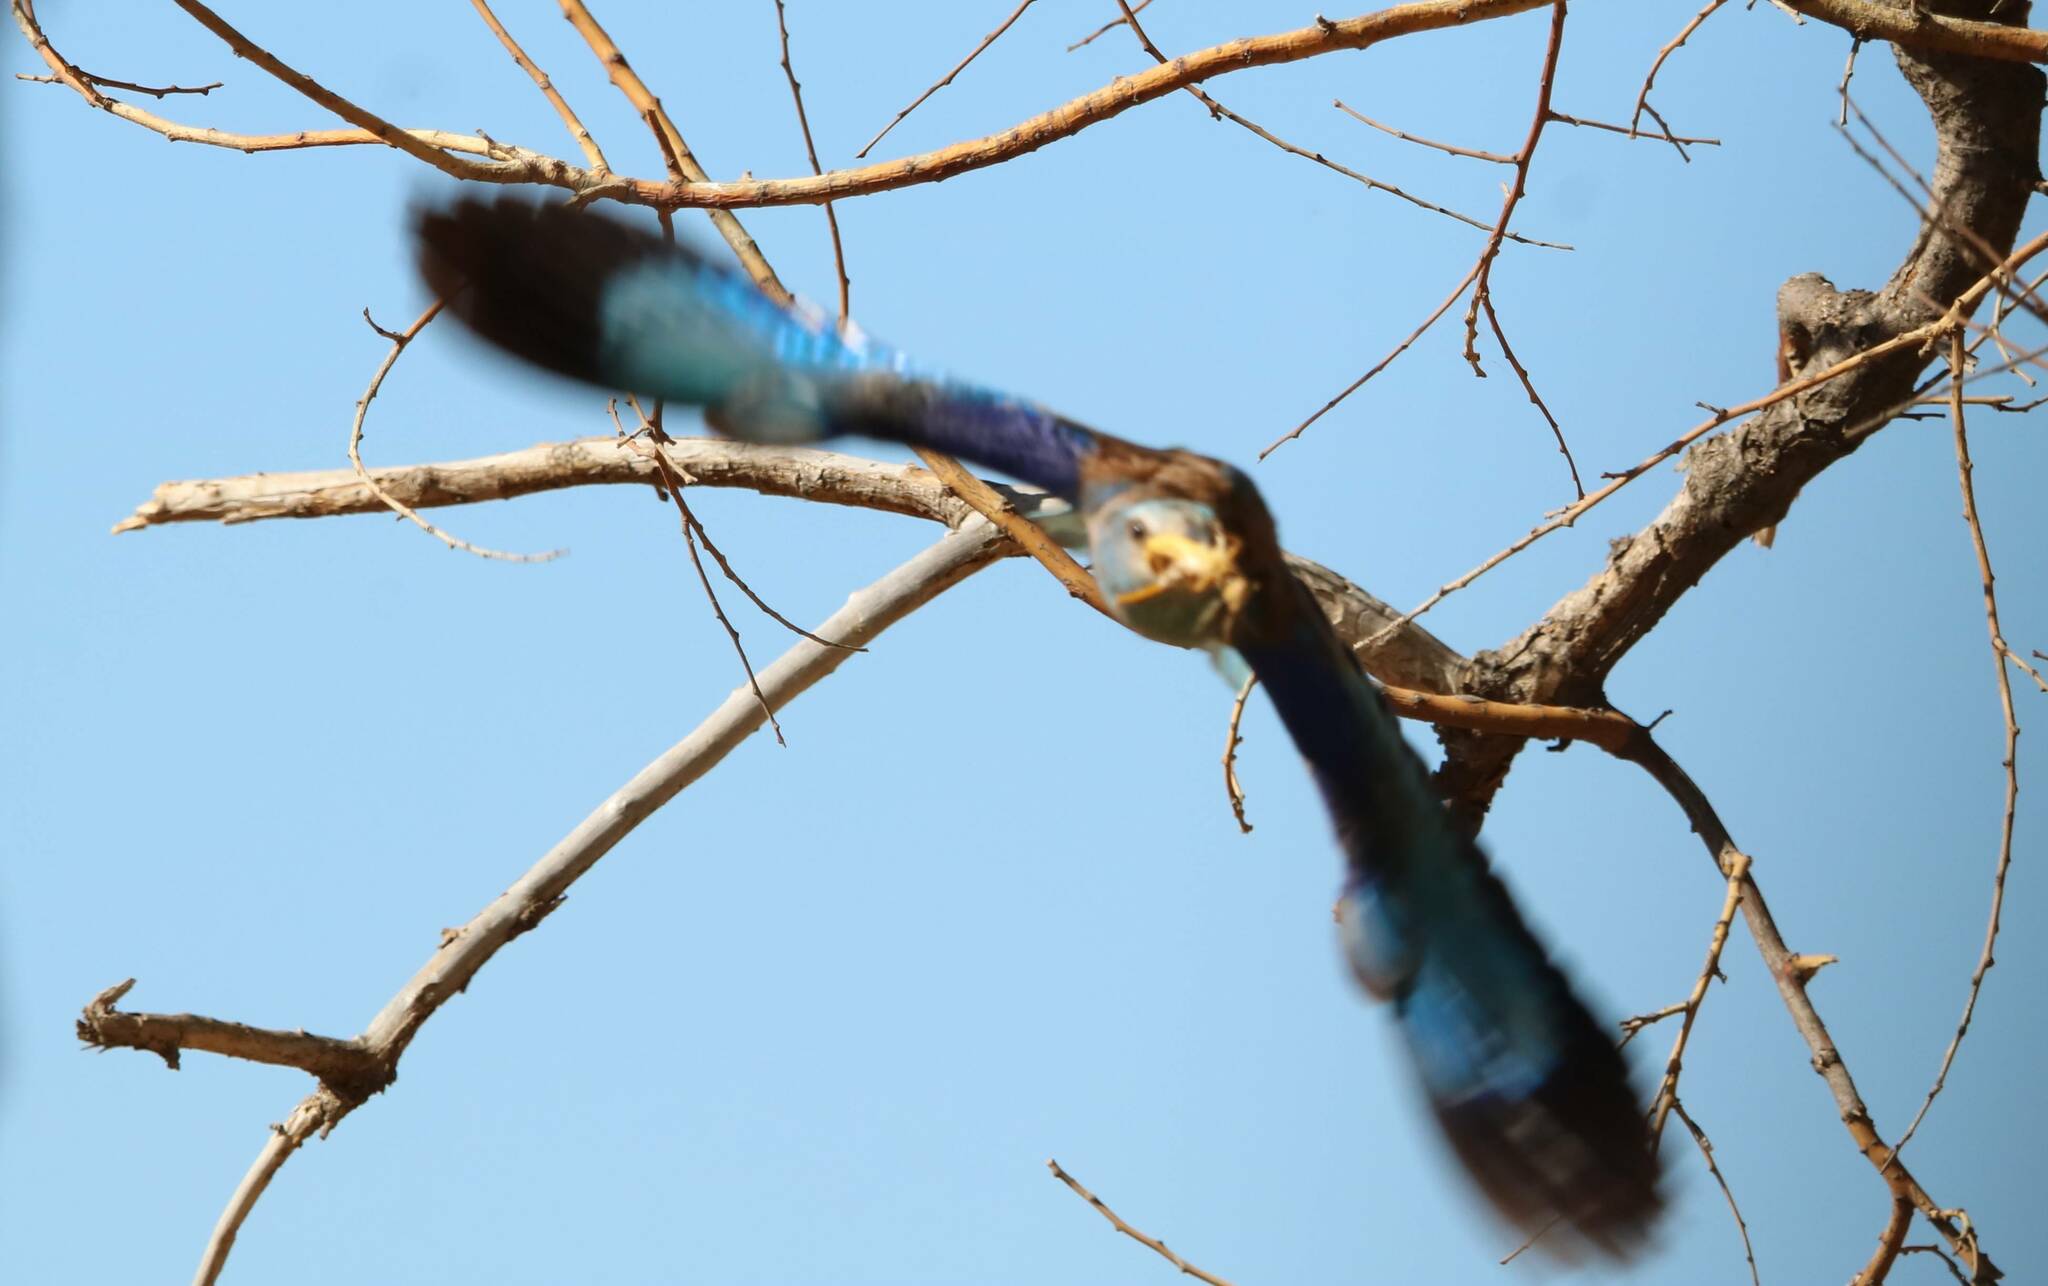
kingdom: Animalia
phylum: Chordata
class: Aves
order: Coraciiformes
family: Coraciidae
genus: Coracias
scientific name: Coracias garrulus
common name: European roller
